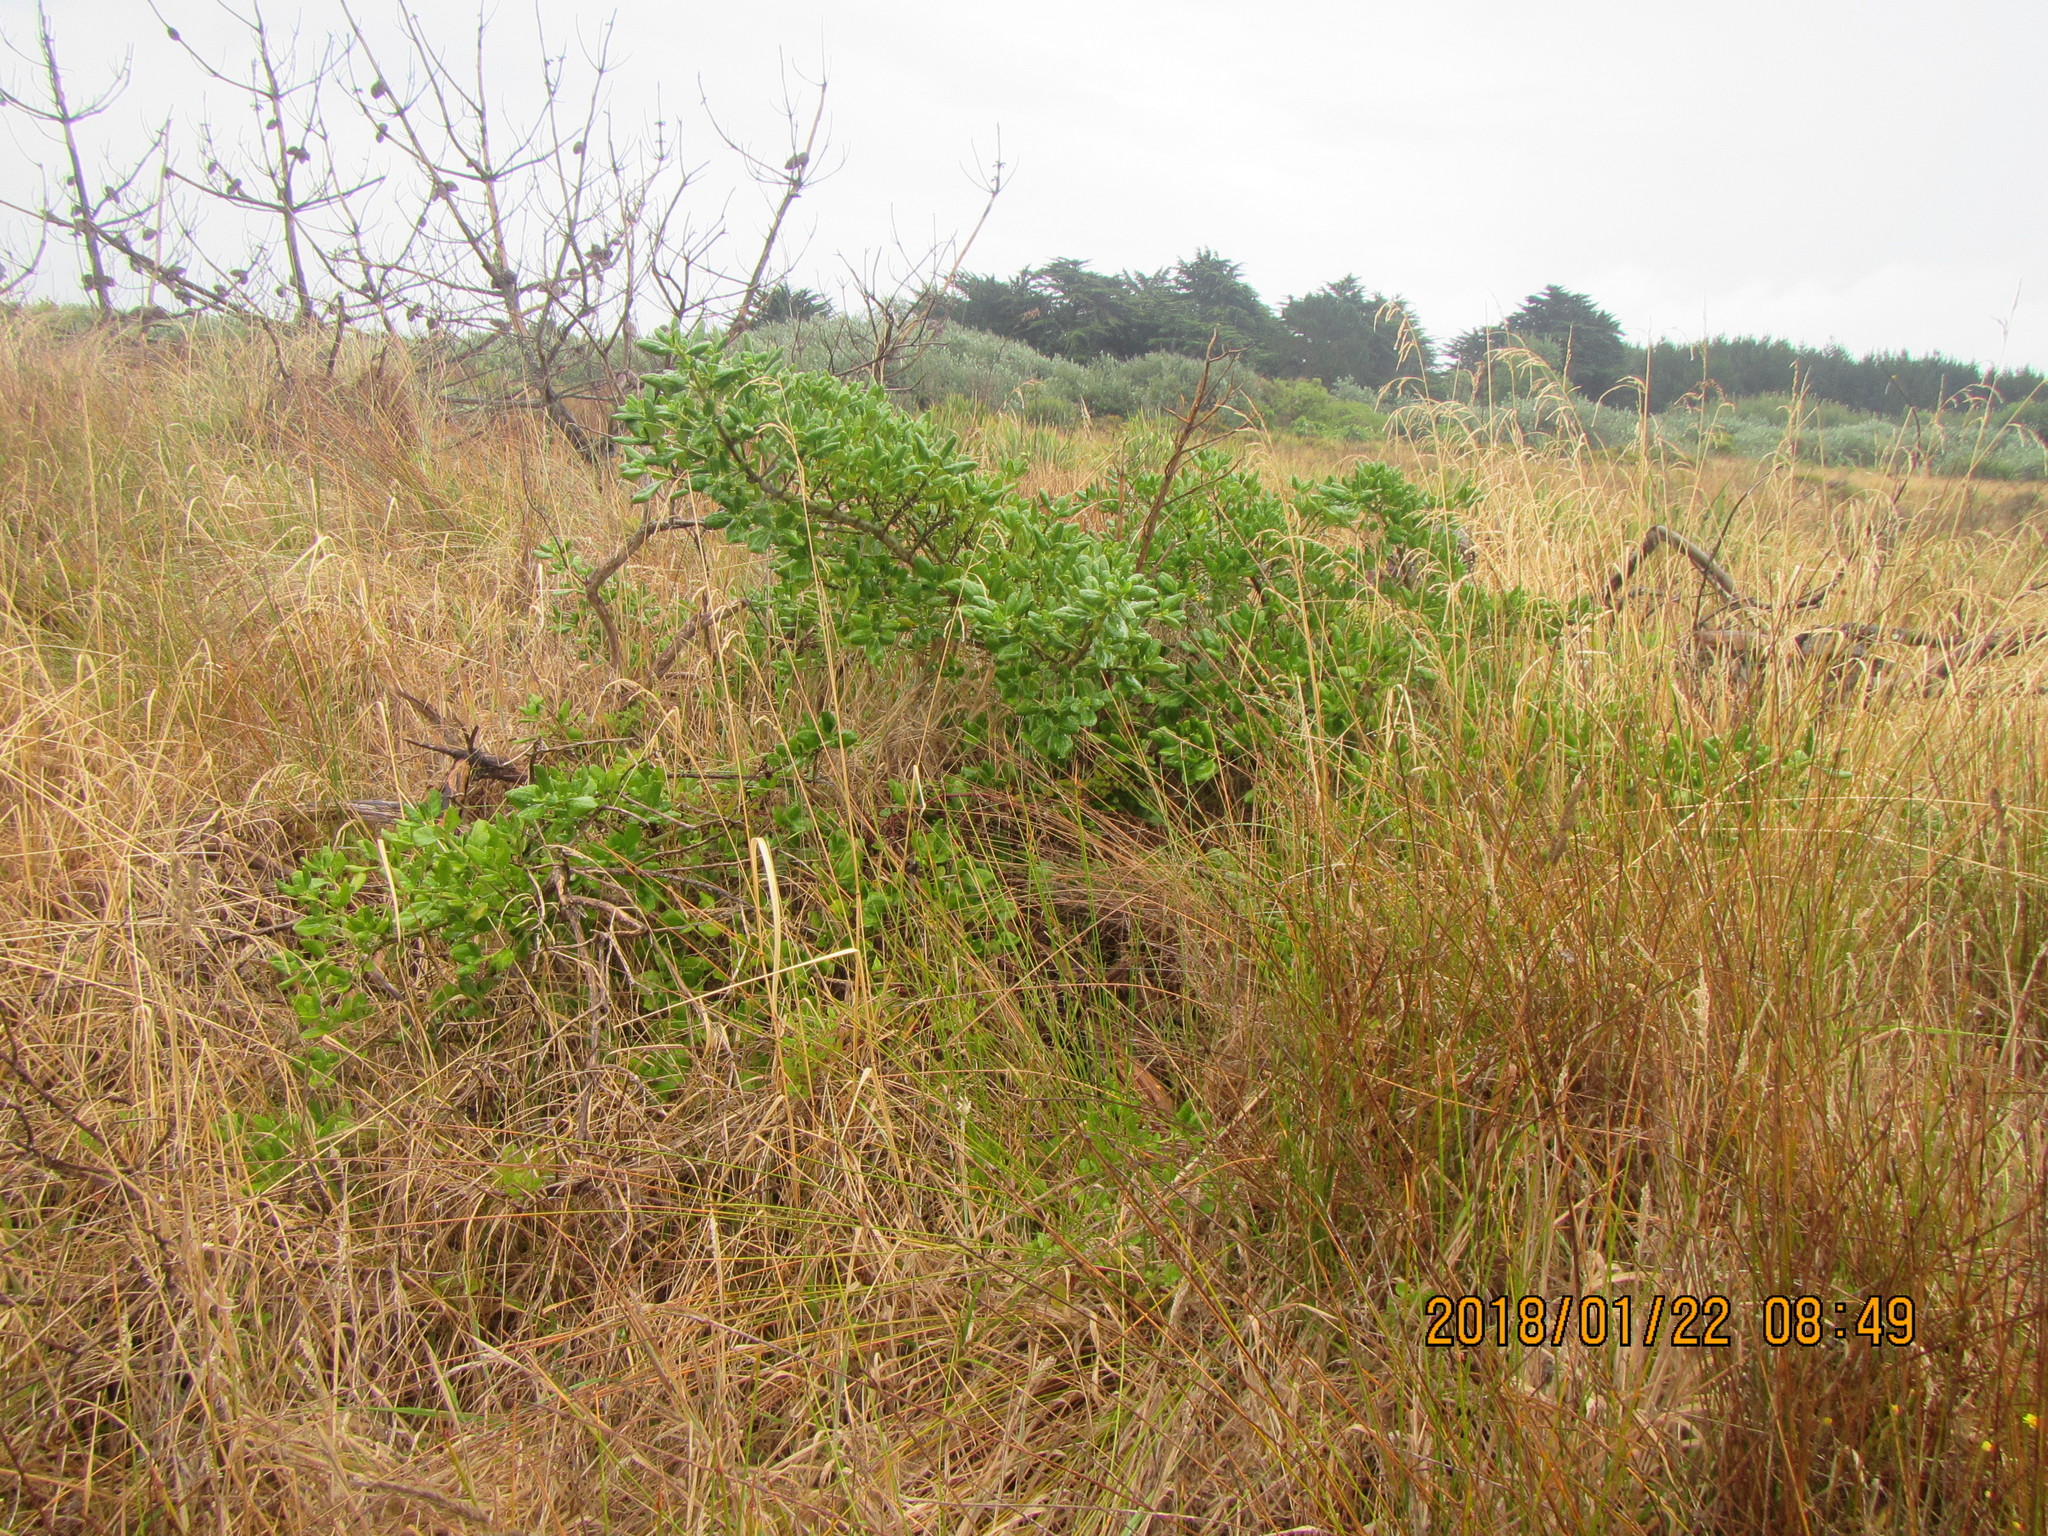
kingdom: Plantae
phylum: Tracheophyta
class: Magnoliopsida
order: Gentianales
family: Rubiaceae
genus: Coprosma
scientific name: Coprosma repens
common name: Tree bedstraw
